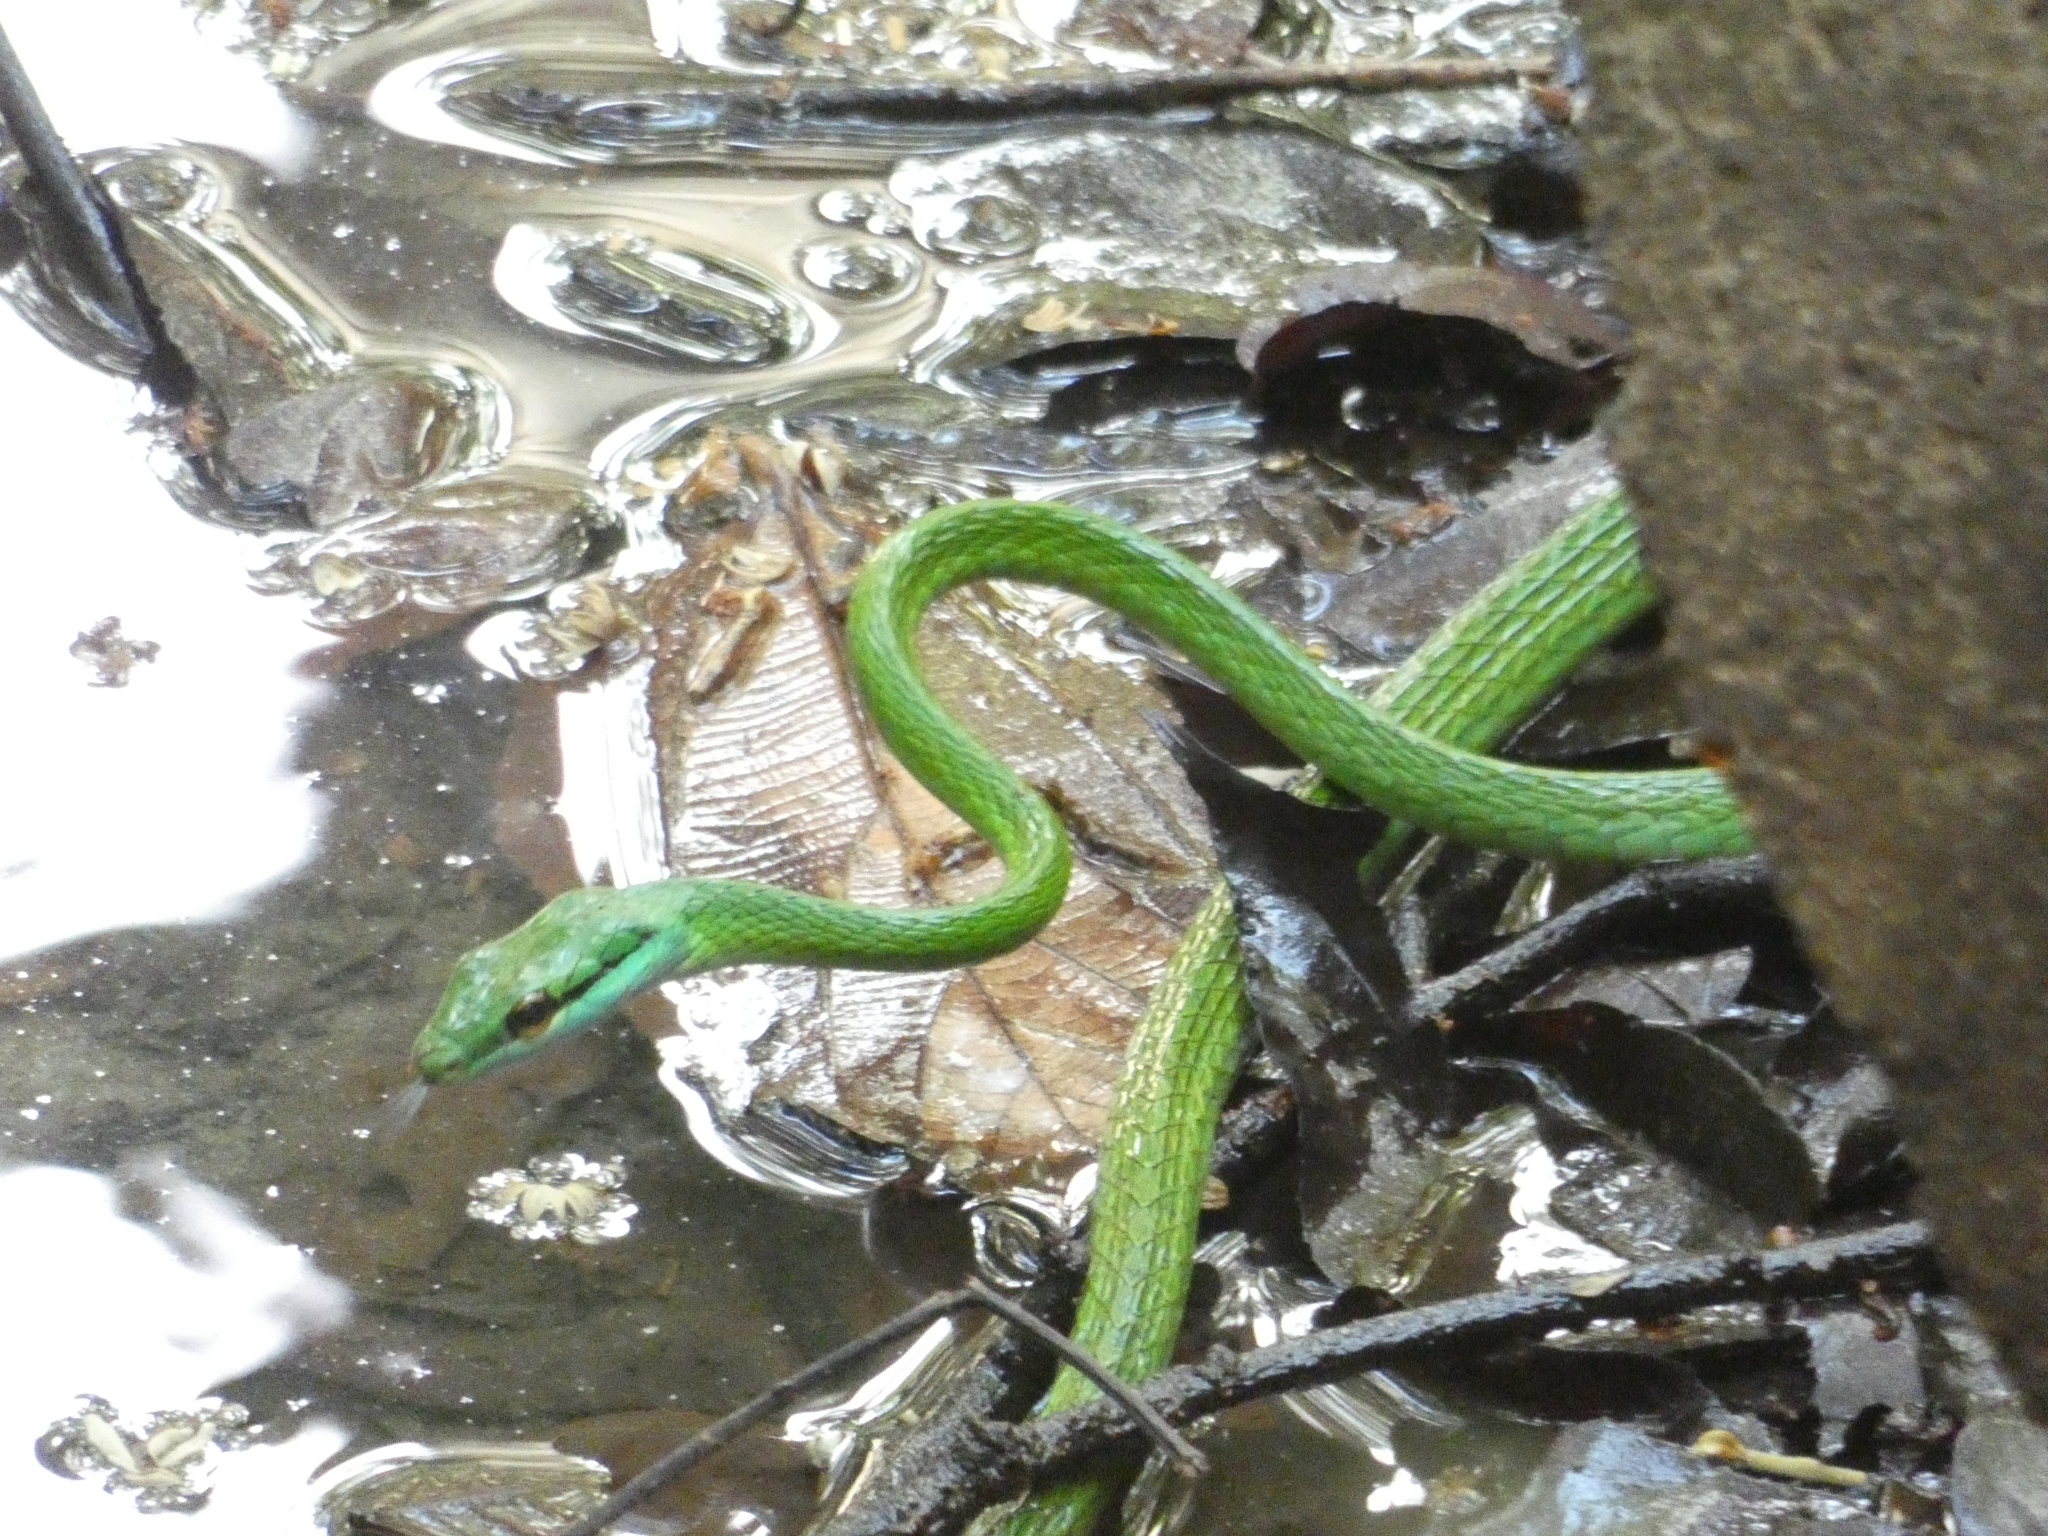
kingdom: Animalia
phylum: Chordata
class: Squamata
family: Colubridae
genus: Leptophis
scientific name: Leptophis ahaetulla
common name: Parrot snake
